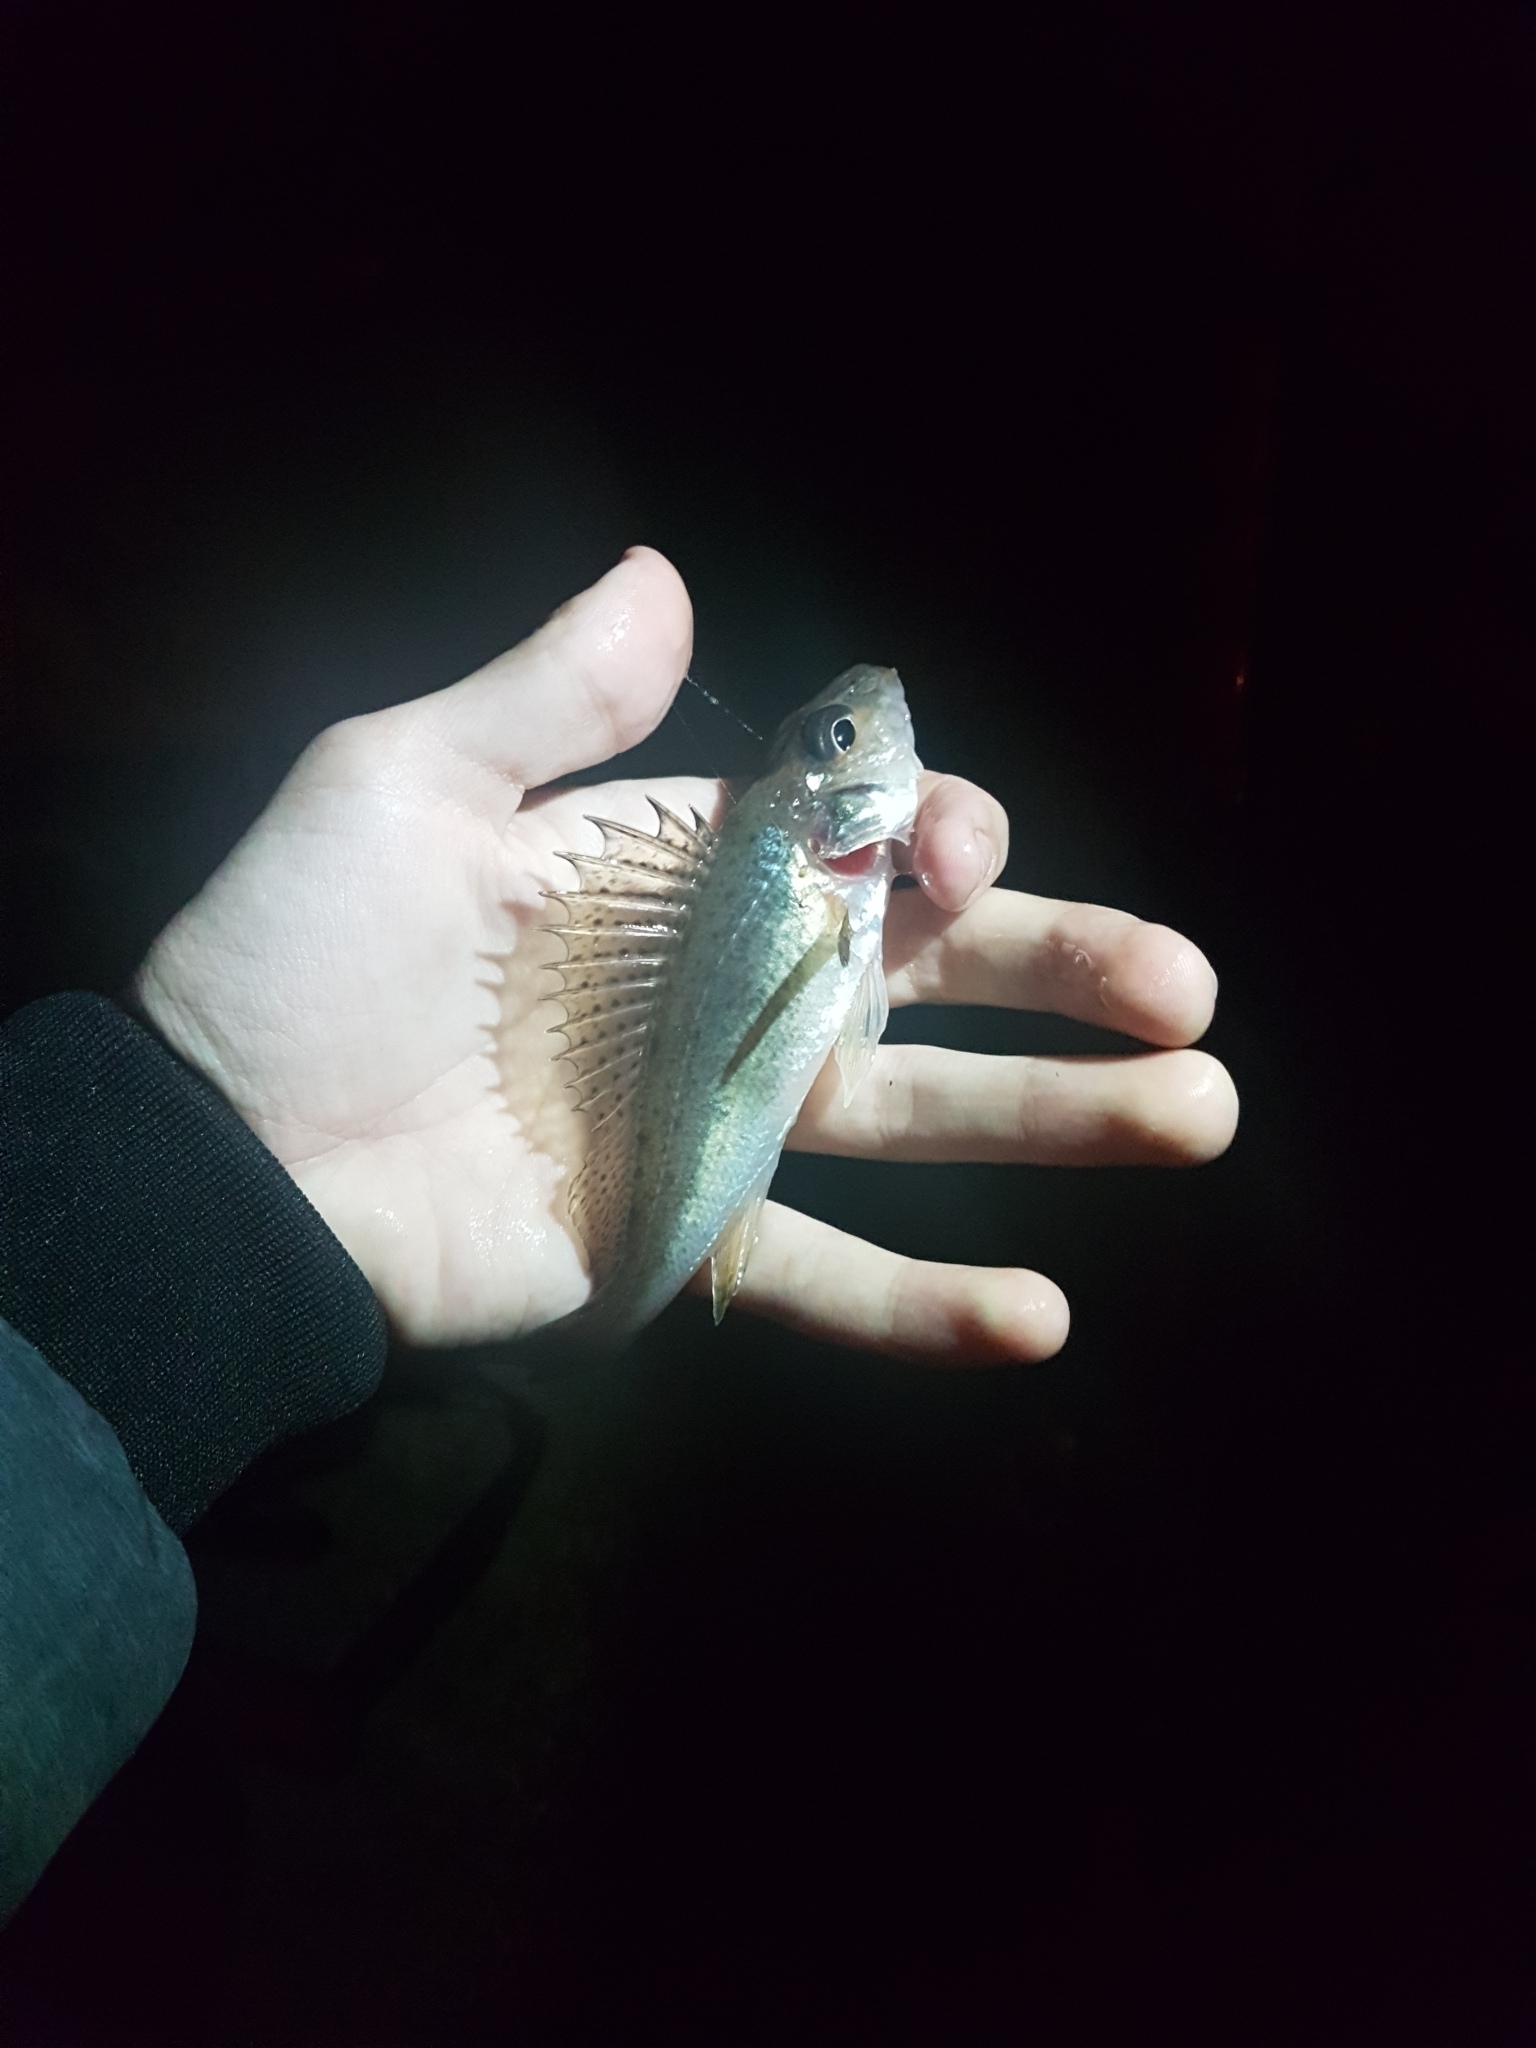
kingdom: Animalia
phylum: Chordata
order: Perciformes
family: Percidae
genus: Gymnocephalus
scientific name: Gymnocephalus cernua
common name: Ruffe
